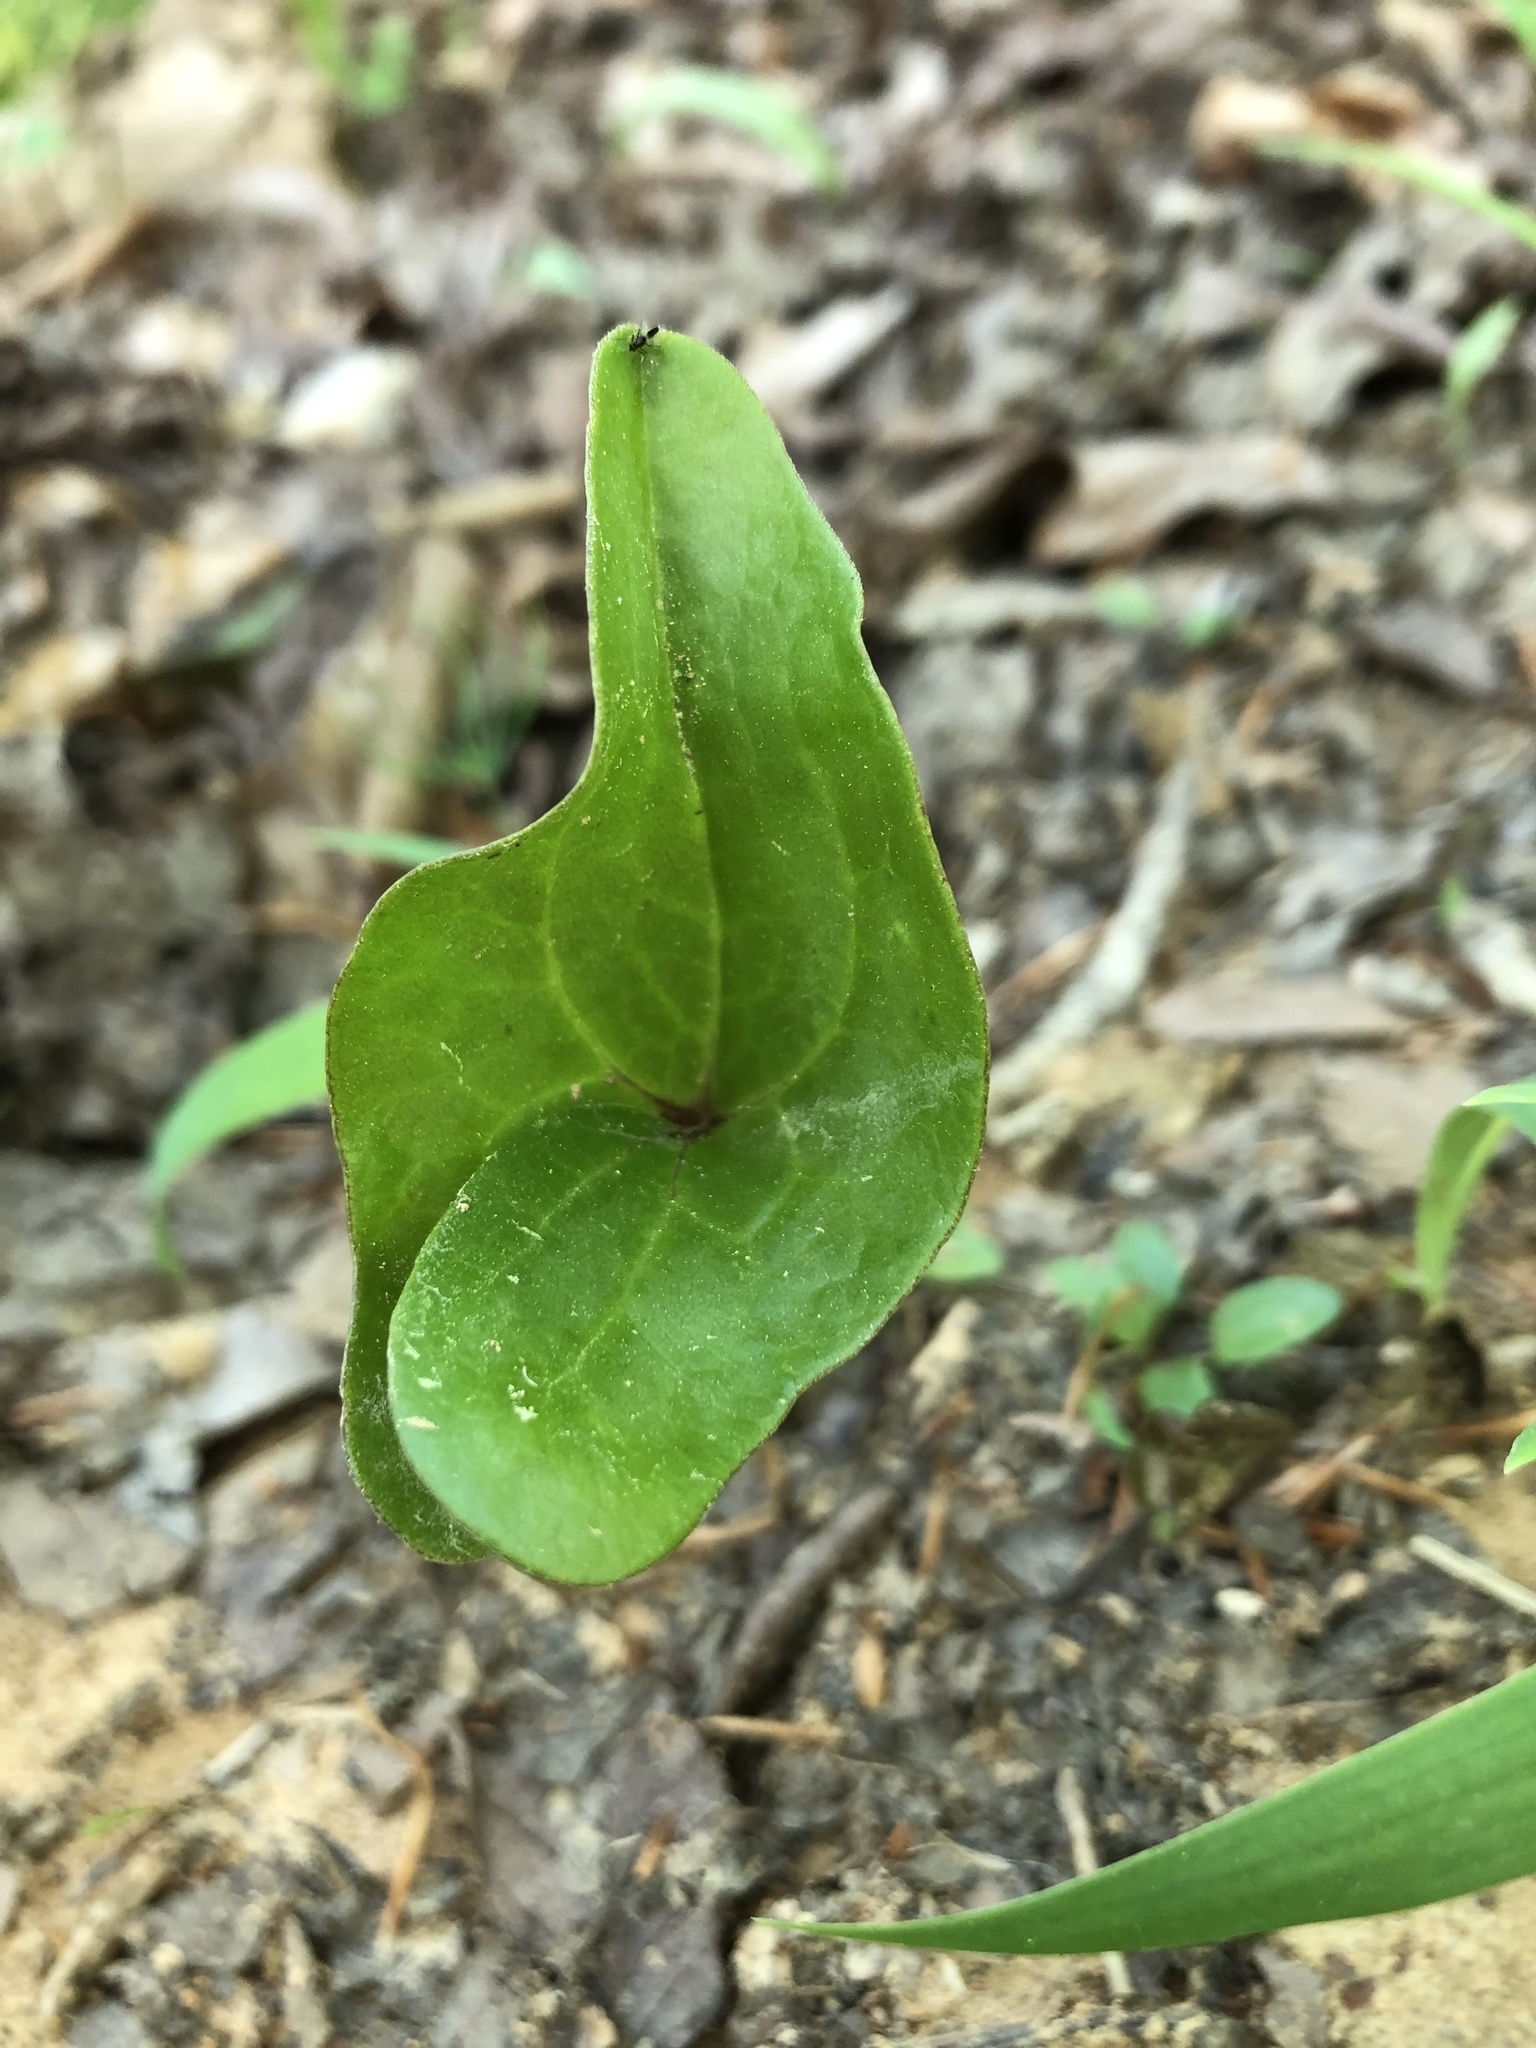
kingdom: Plantae
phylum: Tracheophyta
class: Magnoliopsida
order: Piperales
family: Aristolochiaceae
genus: Hexastylis
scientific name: Hexastylis arifolia
